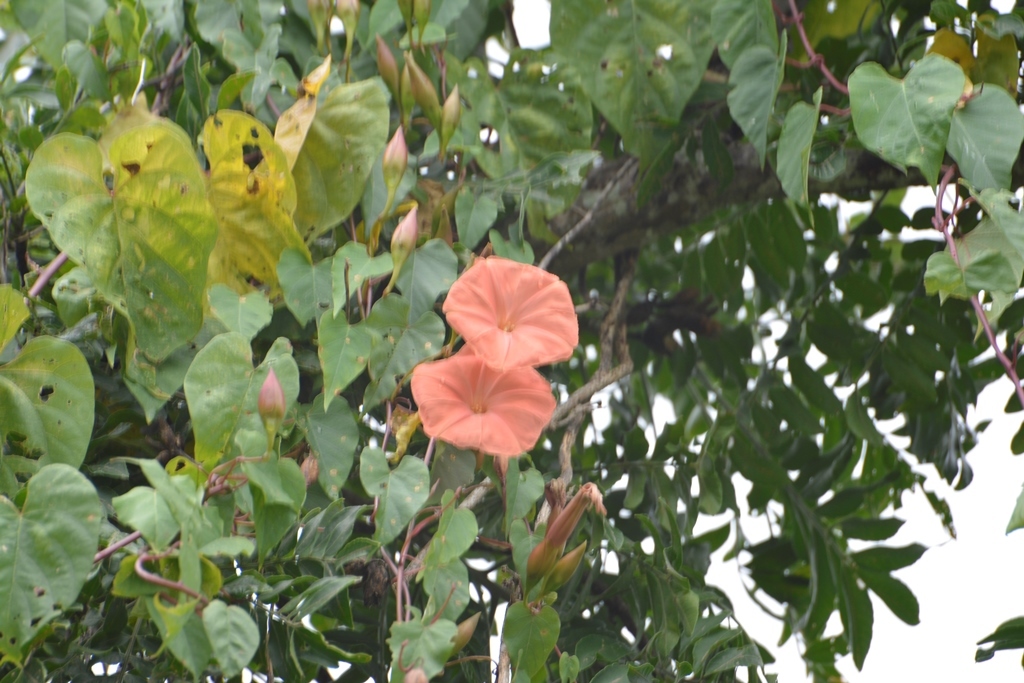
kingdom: Plantae
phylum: Tracheophyta
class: Magnoliopsida
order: Solanales
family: Convolvulaceae
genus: Operculina
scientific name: Operculina pteripes
